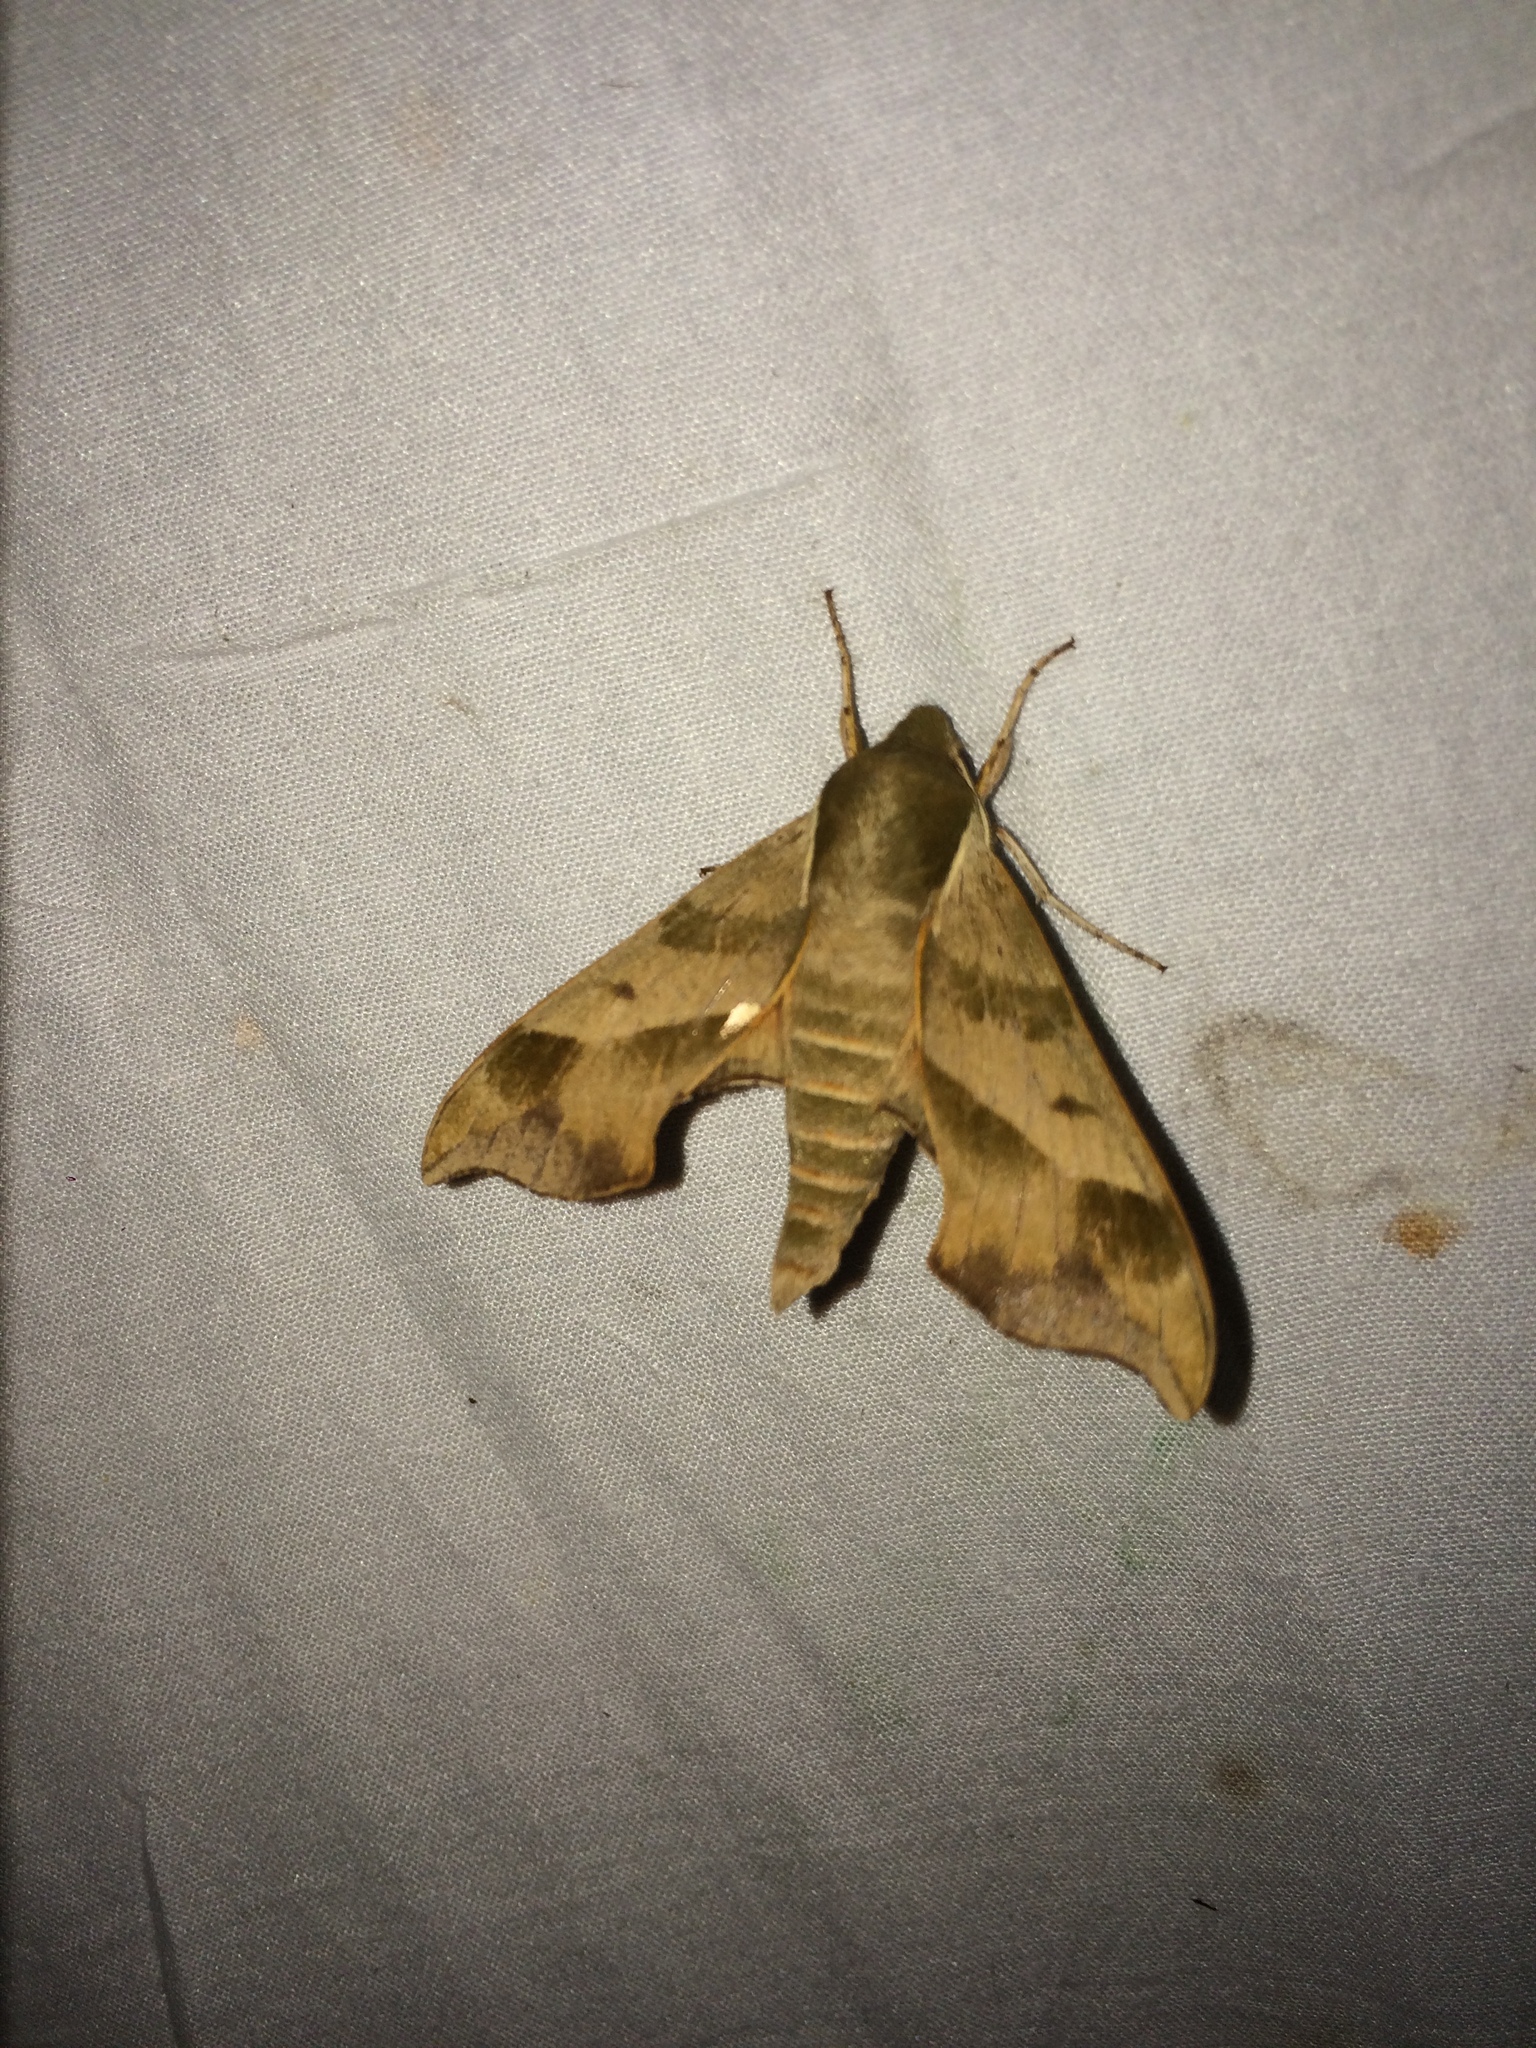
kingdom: Animalia
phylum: Arthropoda
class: Insecta
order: Lepidoptera
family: Sphingidae
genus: Darapsa
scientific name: Darapsa myron
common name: Hog sphinx
